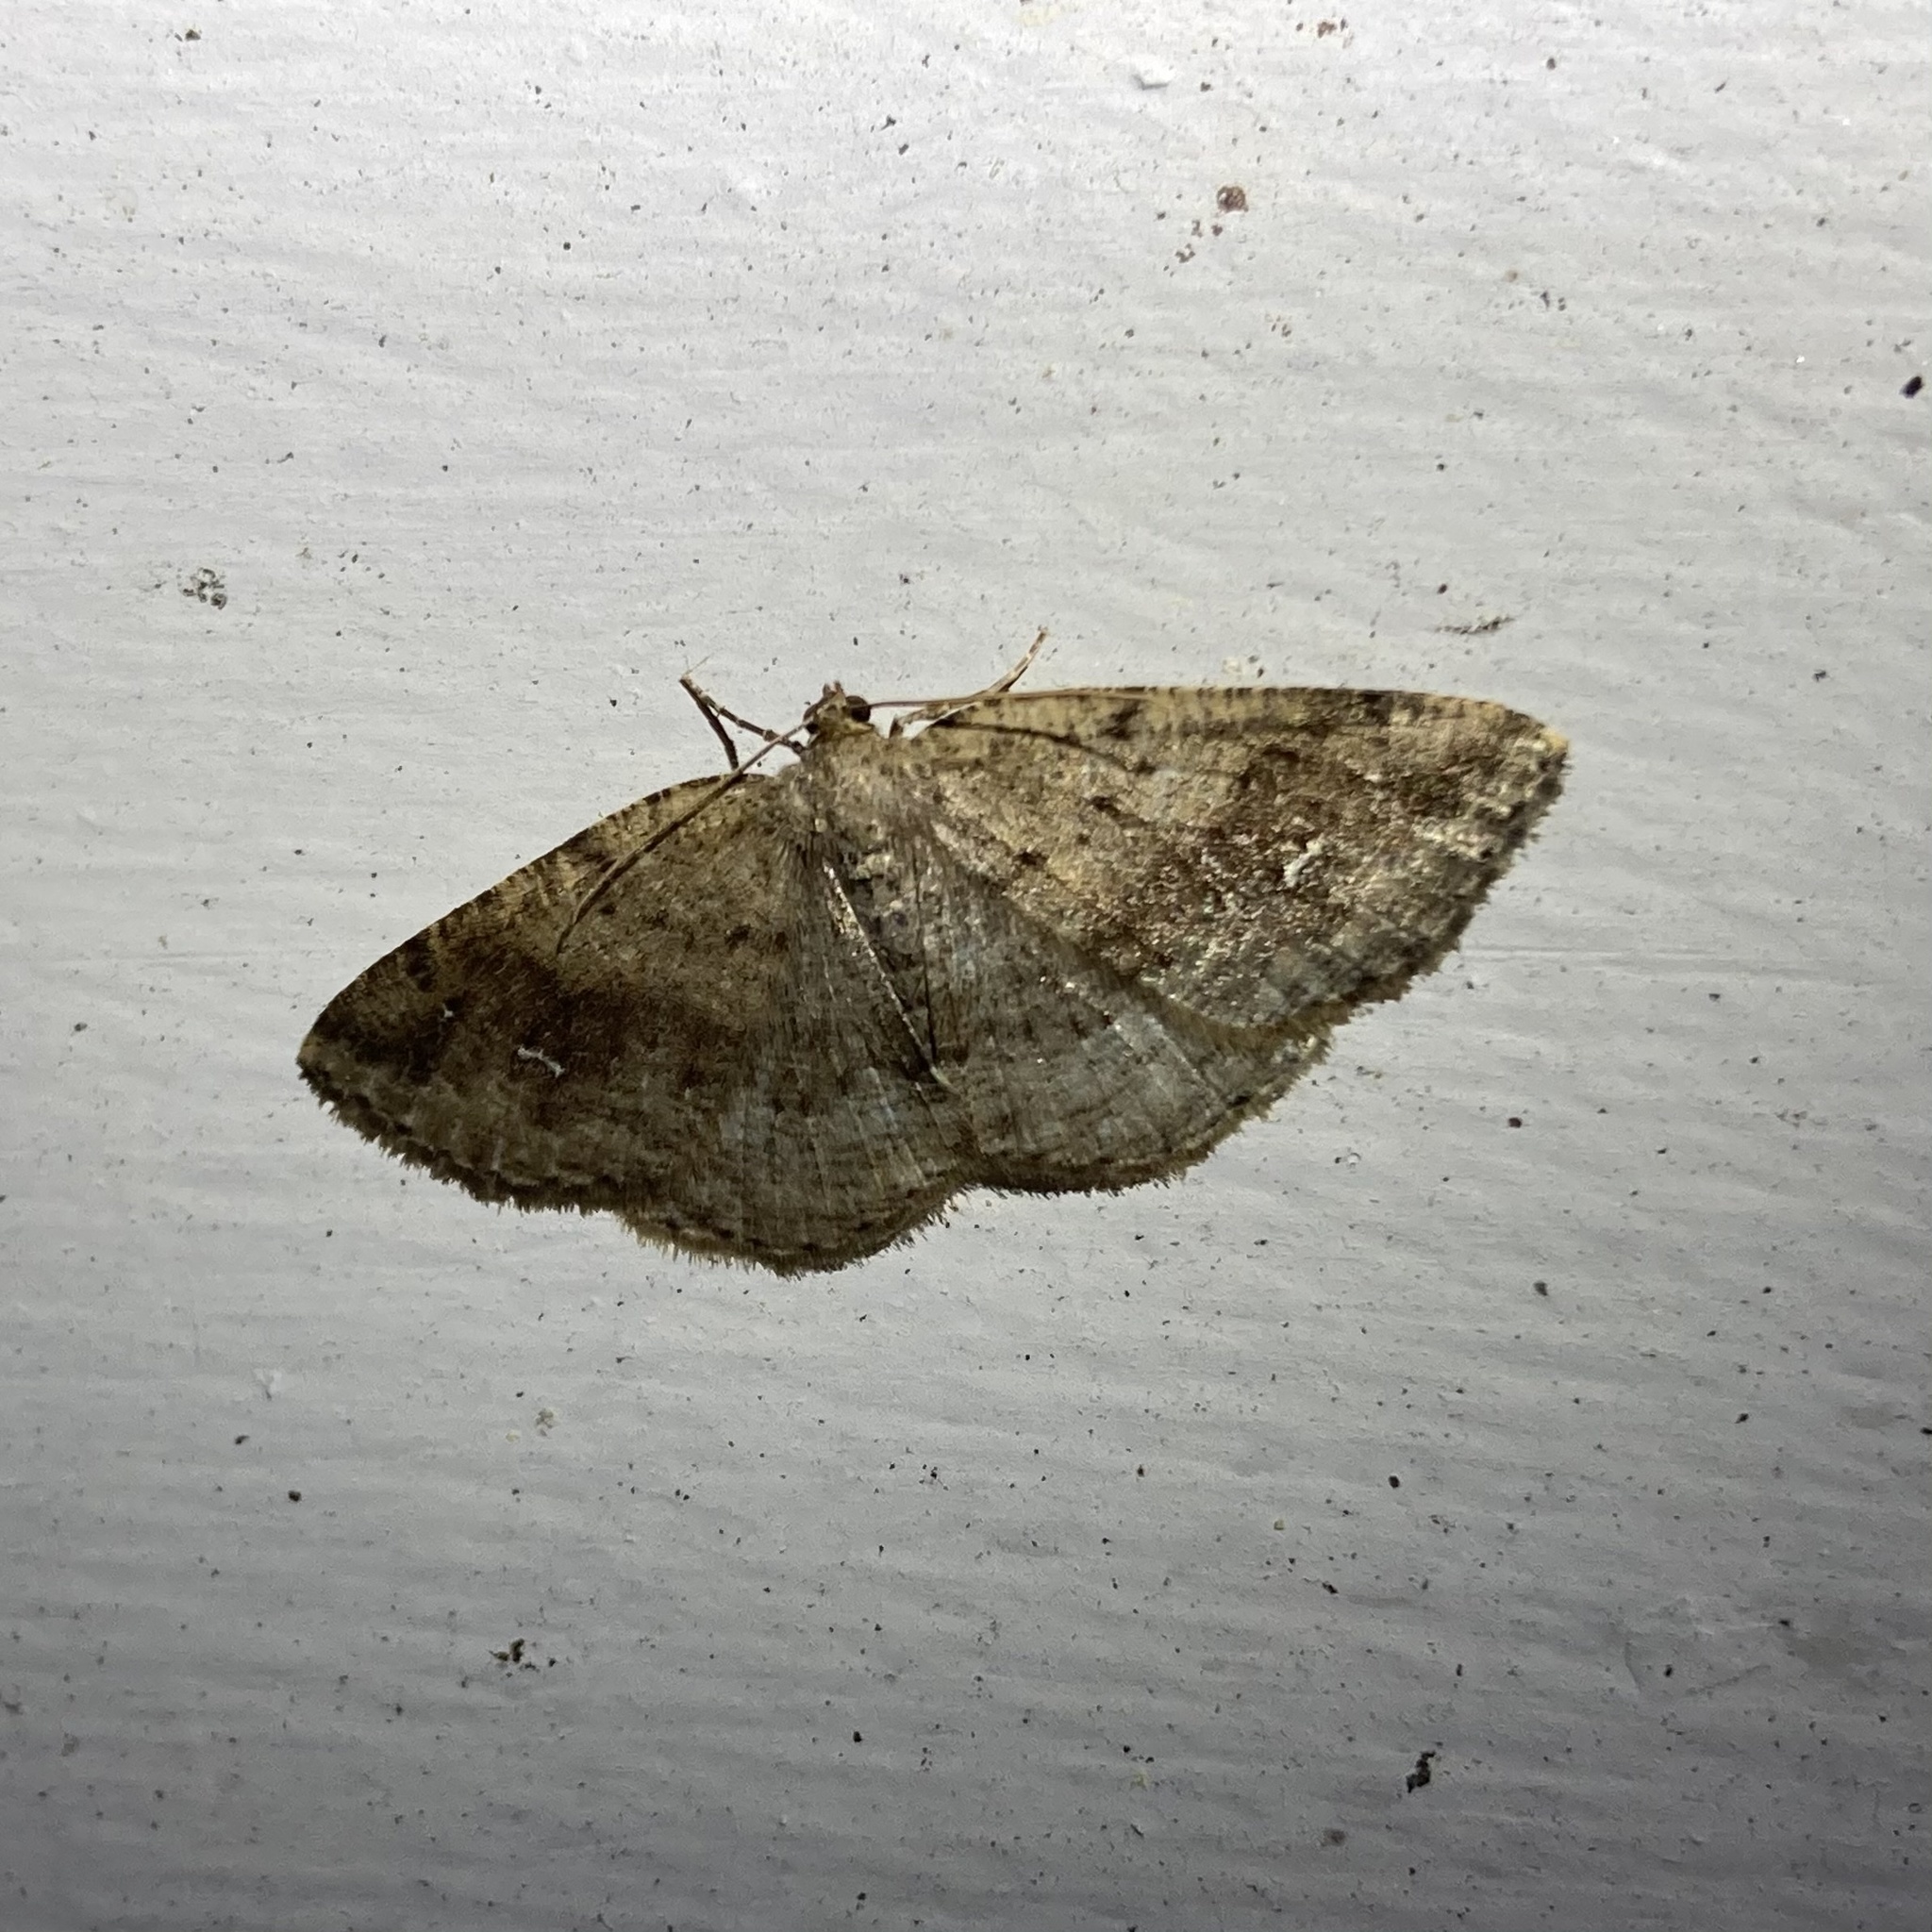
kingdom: Animalia
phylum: Arthropoda
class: Insecta
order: Lepidoptera
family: Geometridae
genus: Homochlodes
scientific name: Homochlodes fritillaria
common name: Pale homochlodes
